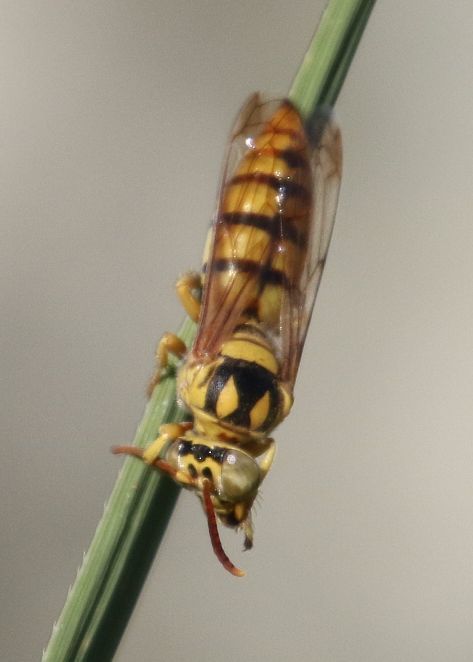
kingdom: Animalia
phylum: Arthropoda
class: Insecta
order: Hymenoptera
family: Crabronidae
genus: Stizus
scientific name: Stizus imperialis
